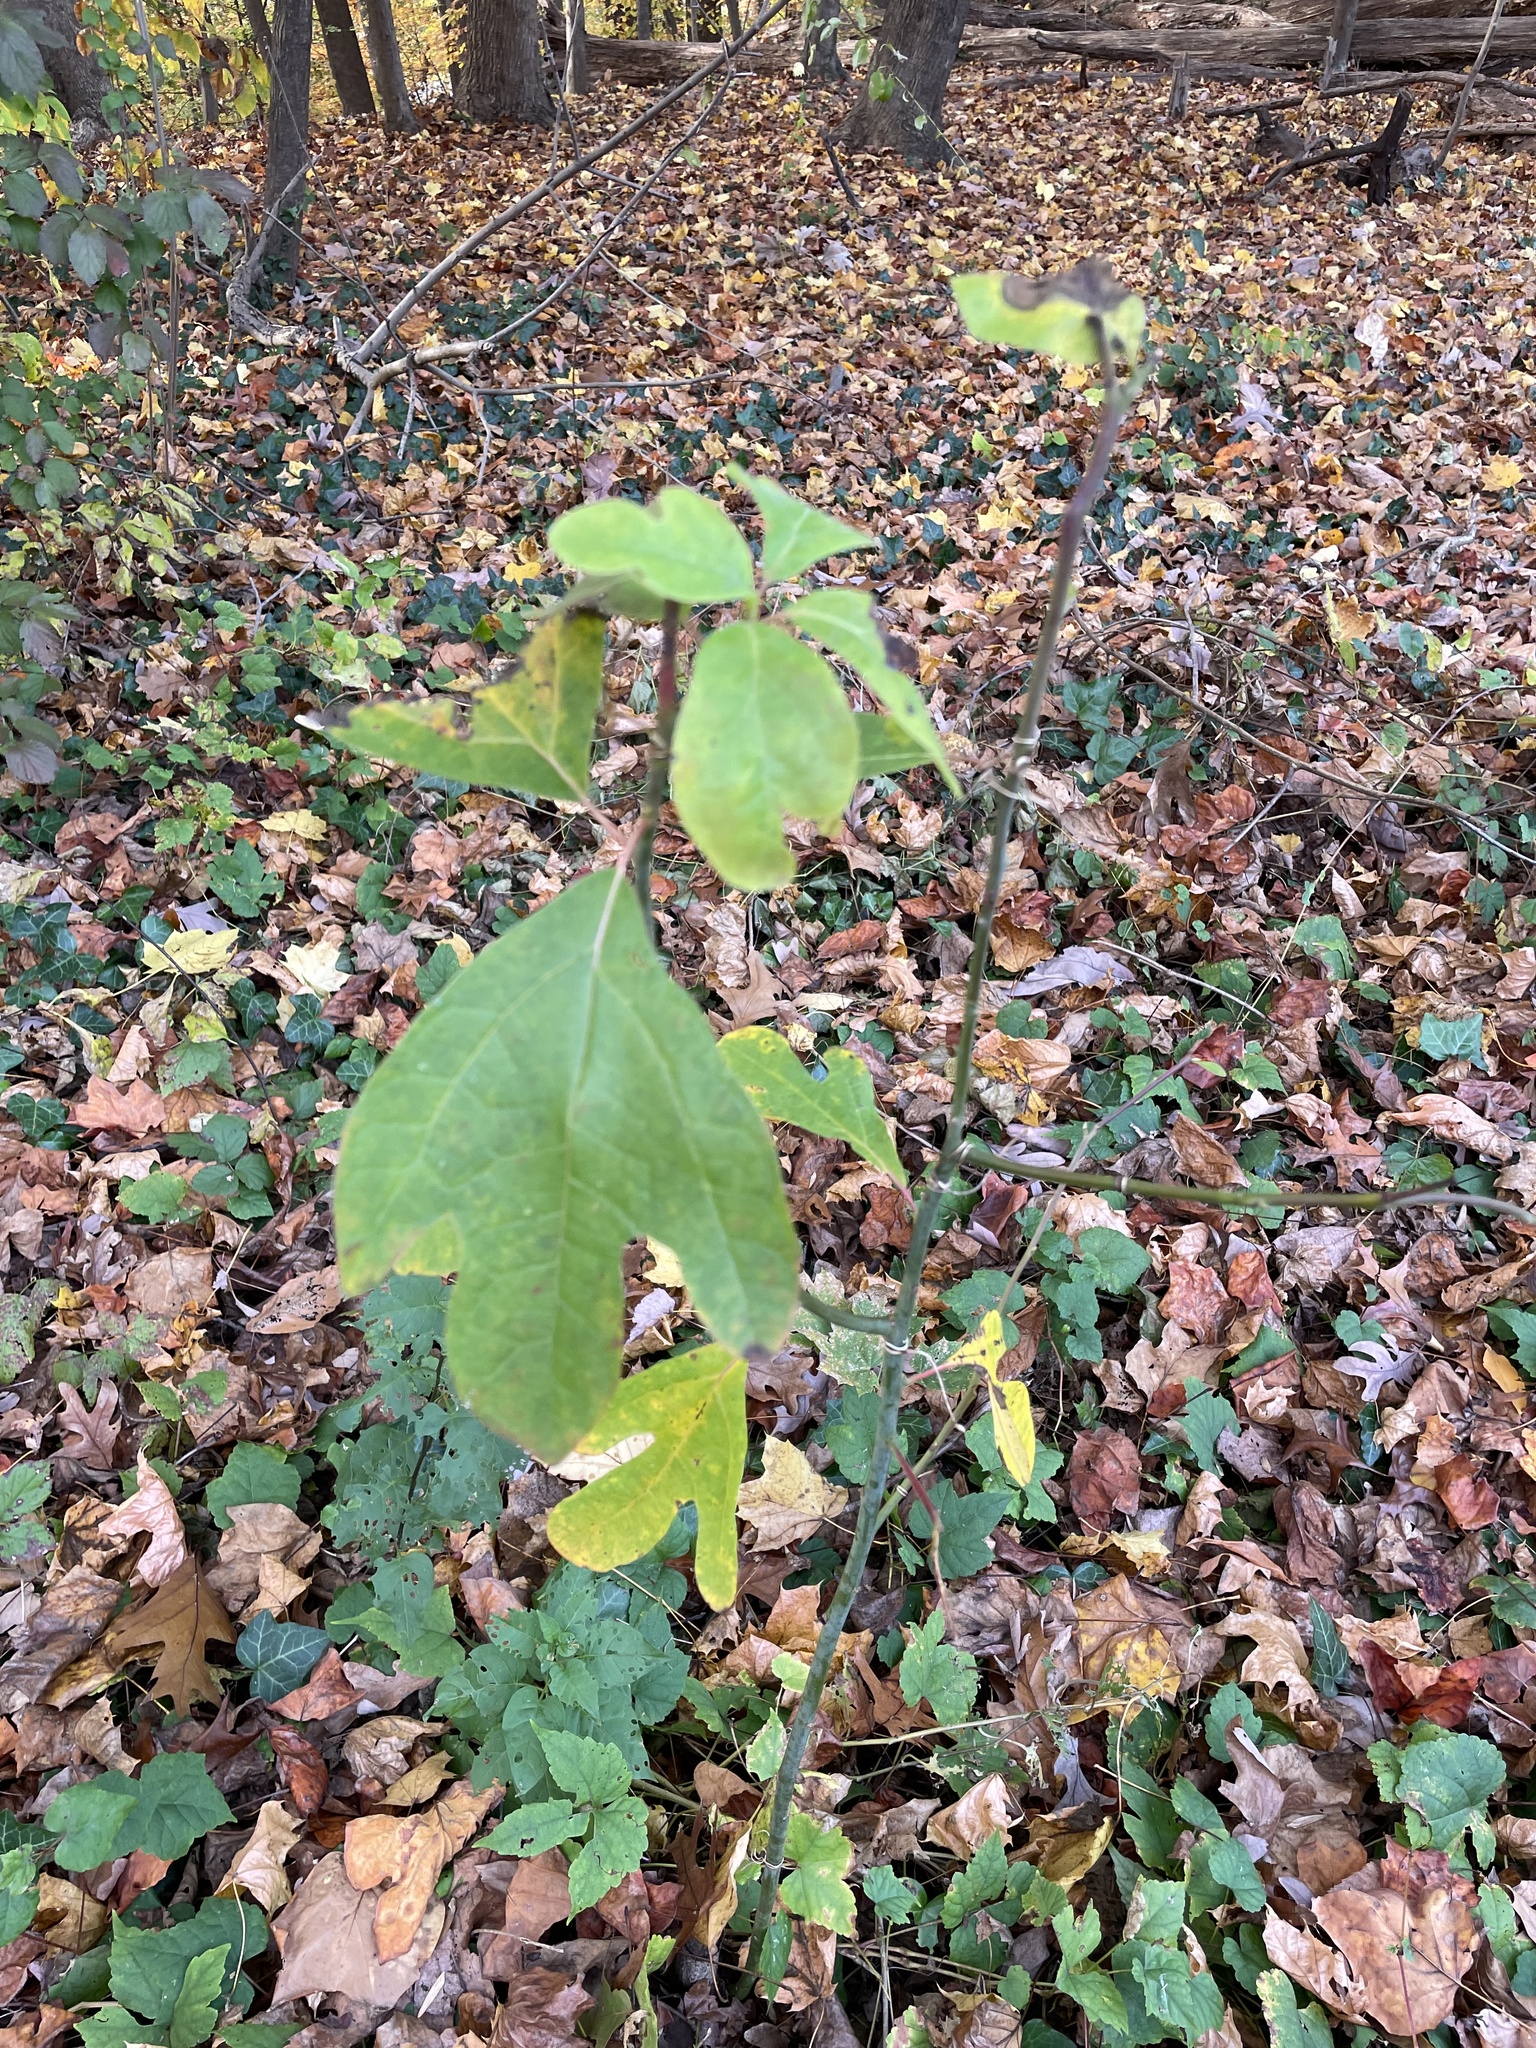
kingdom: Plantae
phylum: Tracheophyta
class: Magnoliopsida
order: Laurales
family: Lauraceae
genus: Sassafras
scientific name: Sassafras albidum
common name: Sassafras
